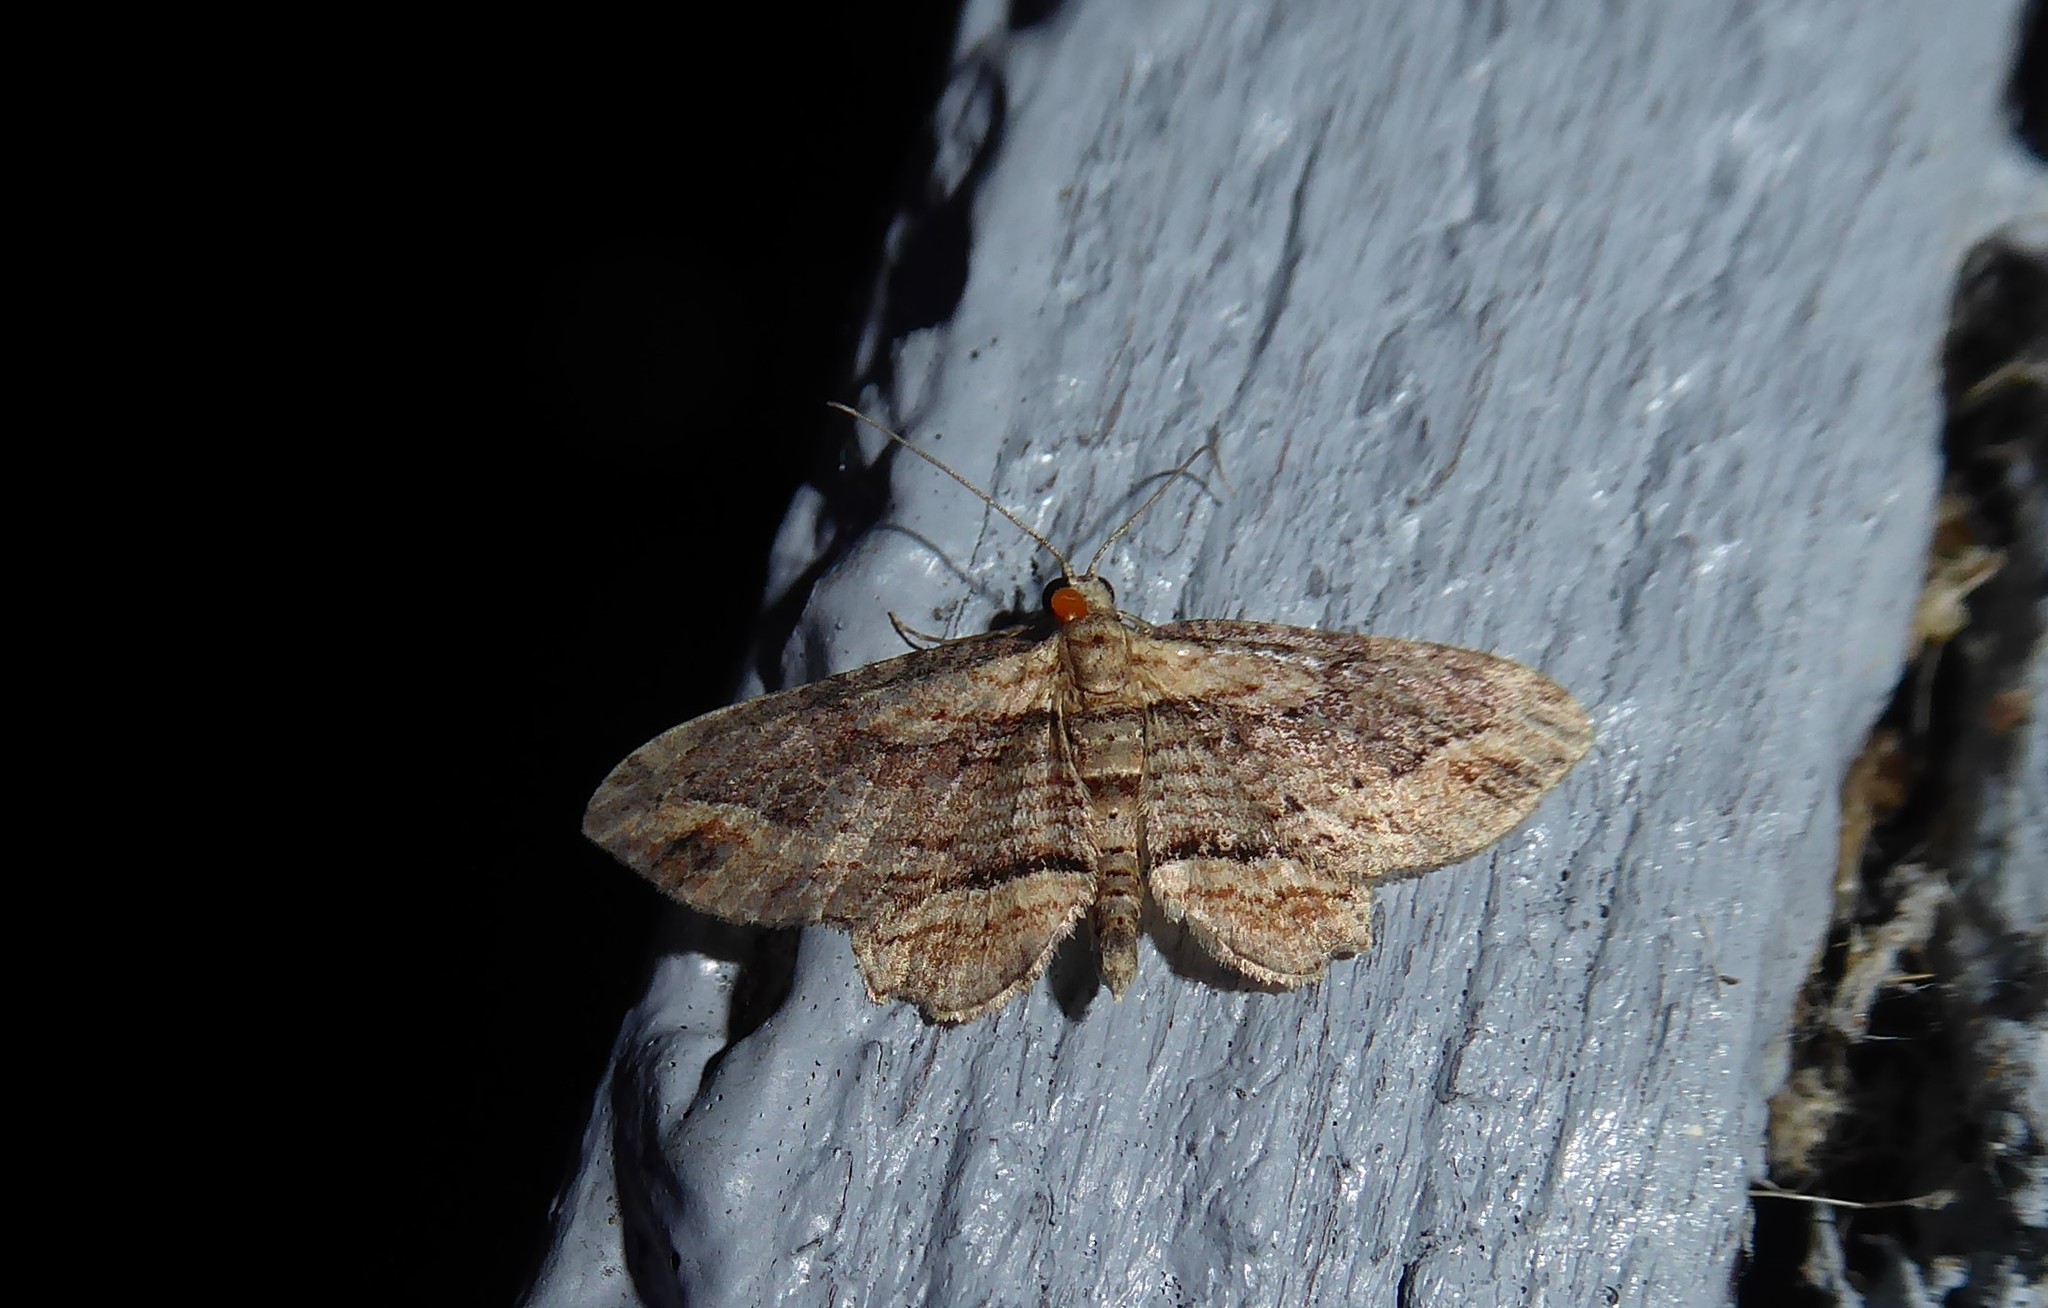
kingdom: Animalia
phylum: Arthropoda
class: Insecta
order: Lepidoptera
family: Geometridae
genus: Chloroclystis
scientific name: Chloroclystis filata
